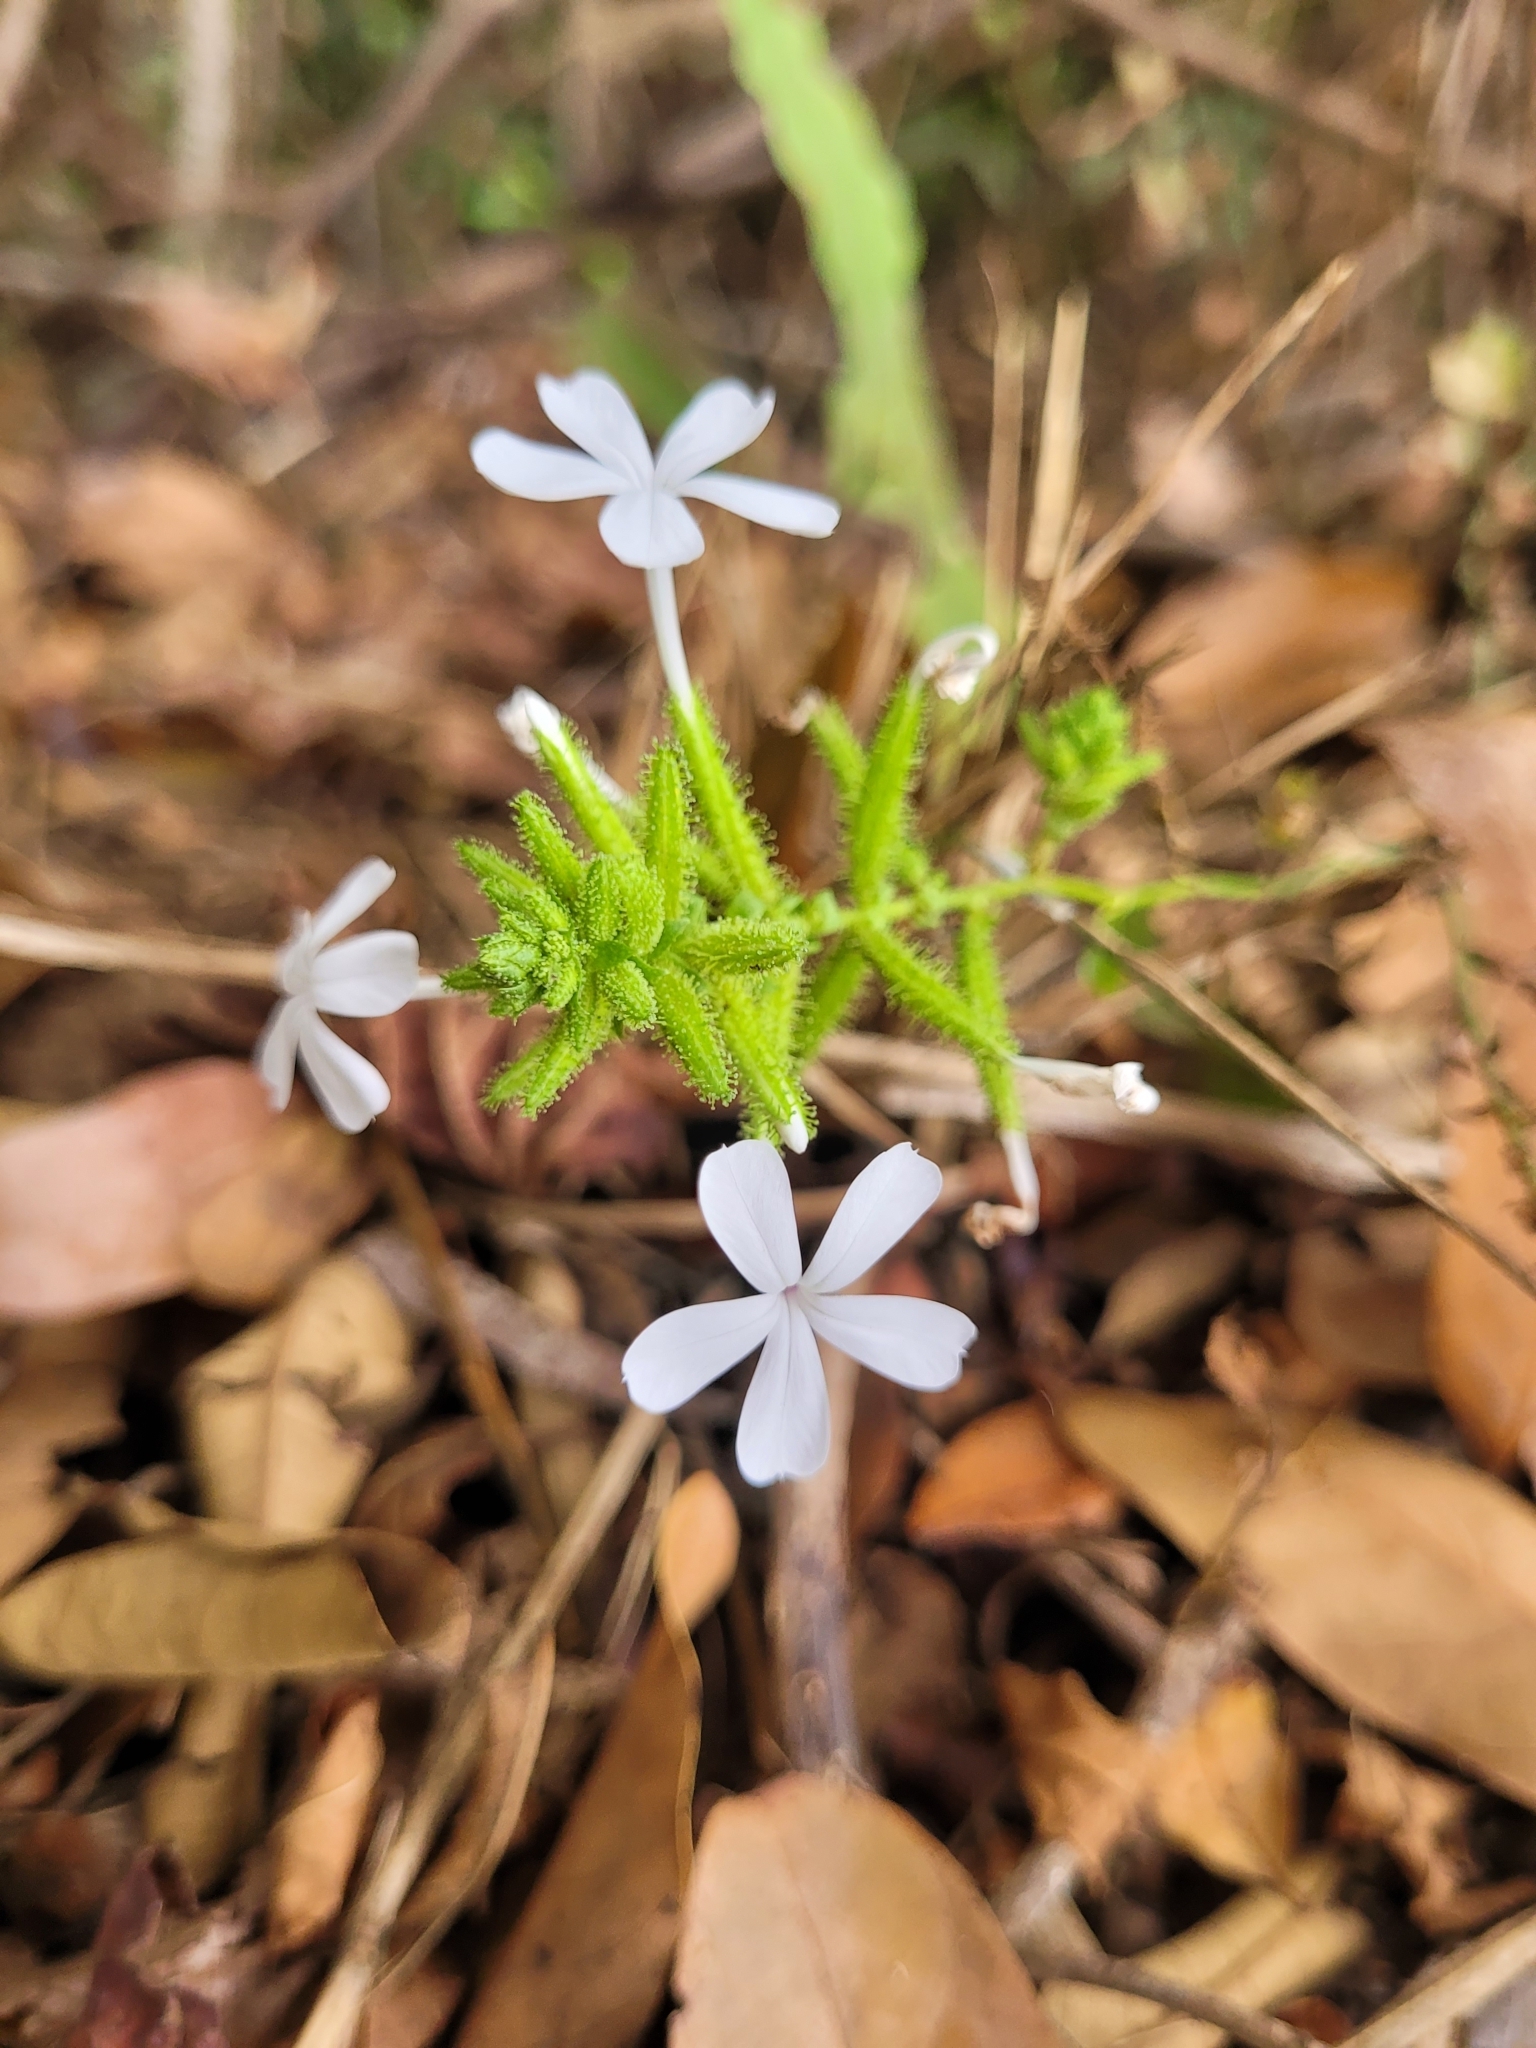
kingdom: Plantae
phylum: Tracheophyta
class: Magnoliopsida
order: Caryophyllales
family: Plumbaginaceae
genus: Plumbago
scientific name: Plumbago zeylanica
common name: Doctorbush
